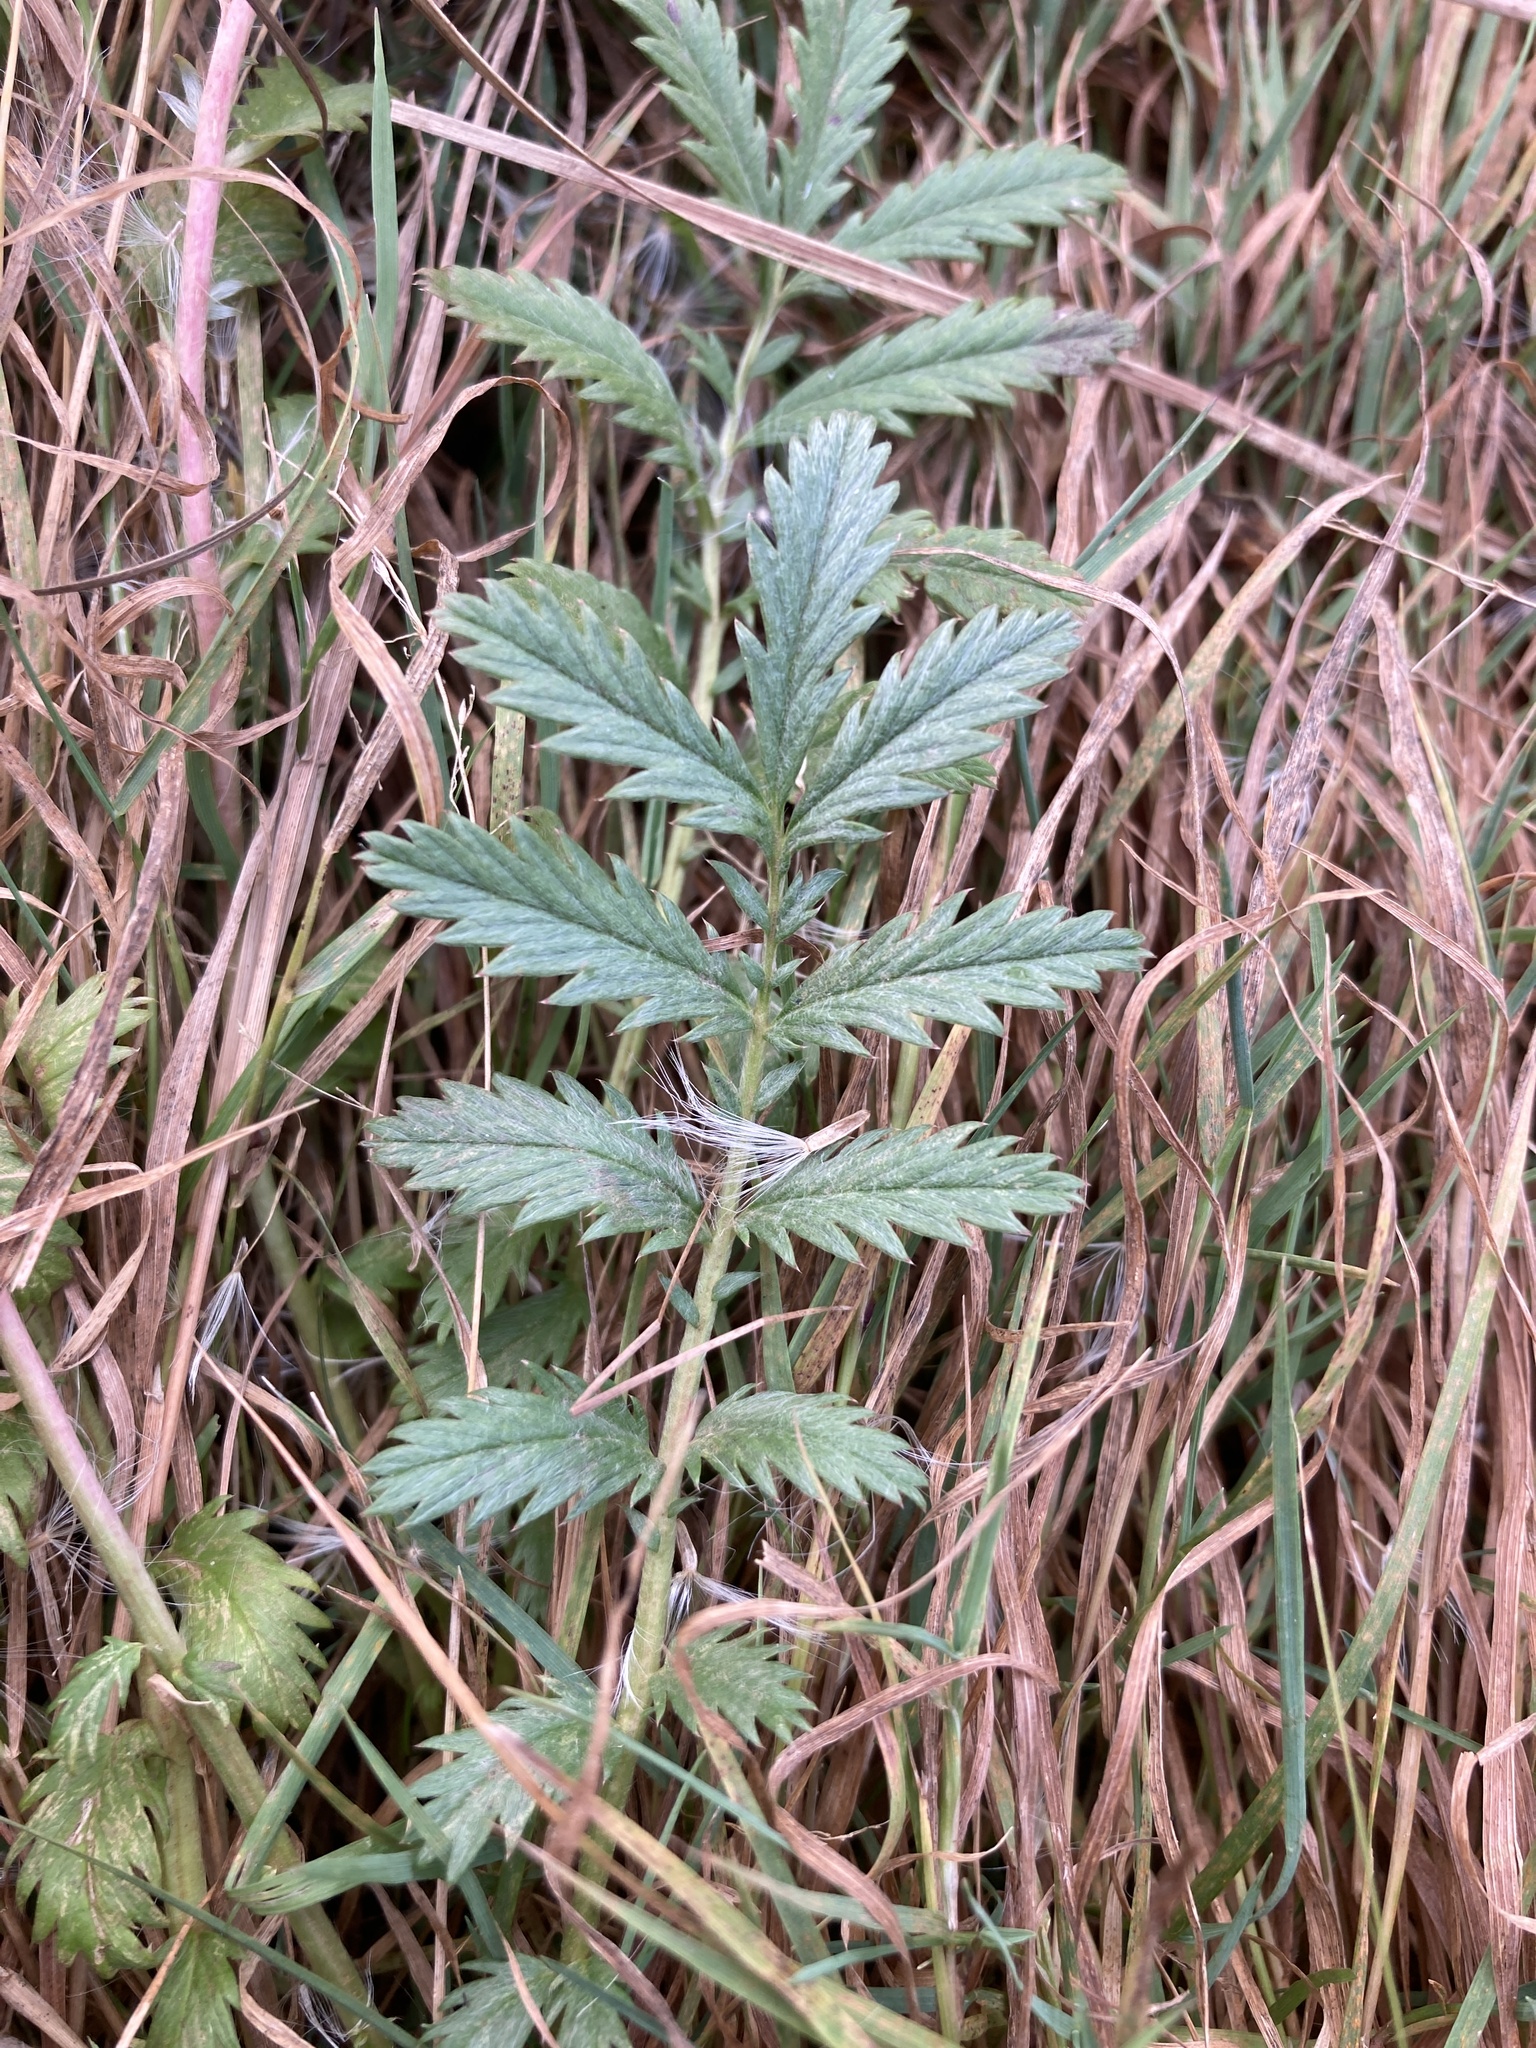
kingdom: Plantae
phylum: Tracheophyta
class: Magnoliopsida
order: Rosales
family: Rosaceae
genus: Argentina
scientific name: Argentina anserina
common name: Common silverweed
